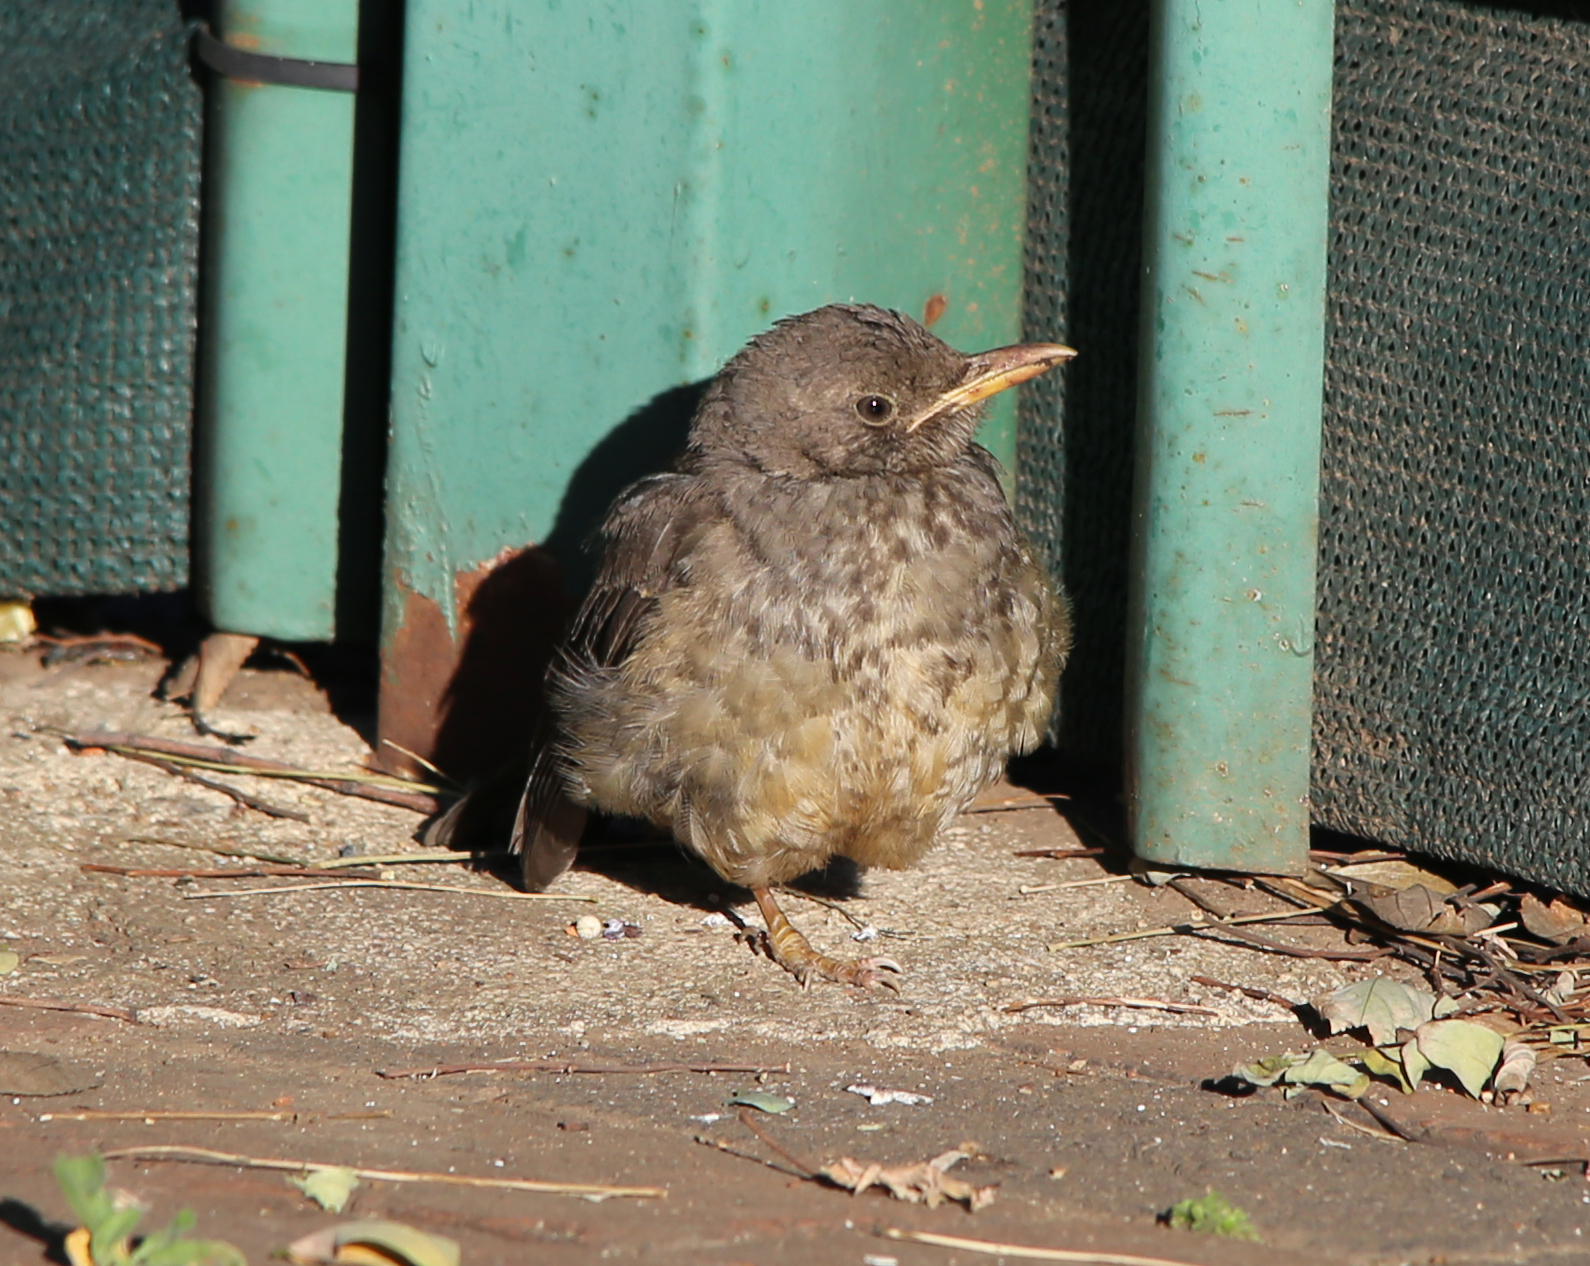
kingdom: Animalia
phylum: Chordata
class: Aves
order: Passeriformes
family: Turdidae
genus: Turdus
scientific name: Turdus smithi
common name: Karoo thrush
